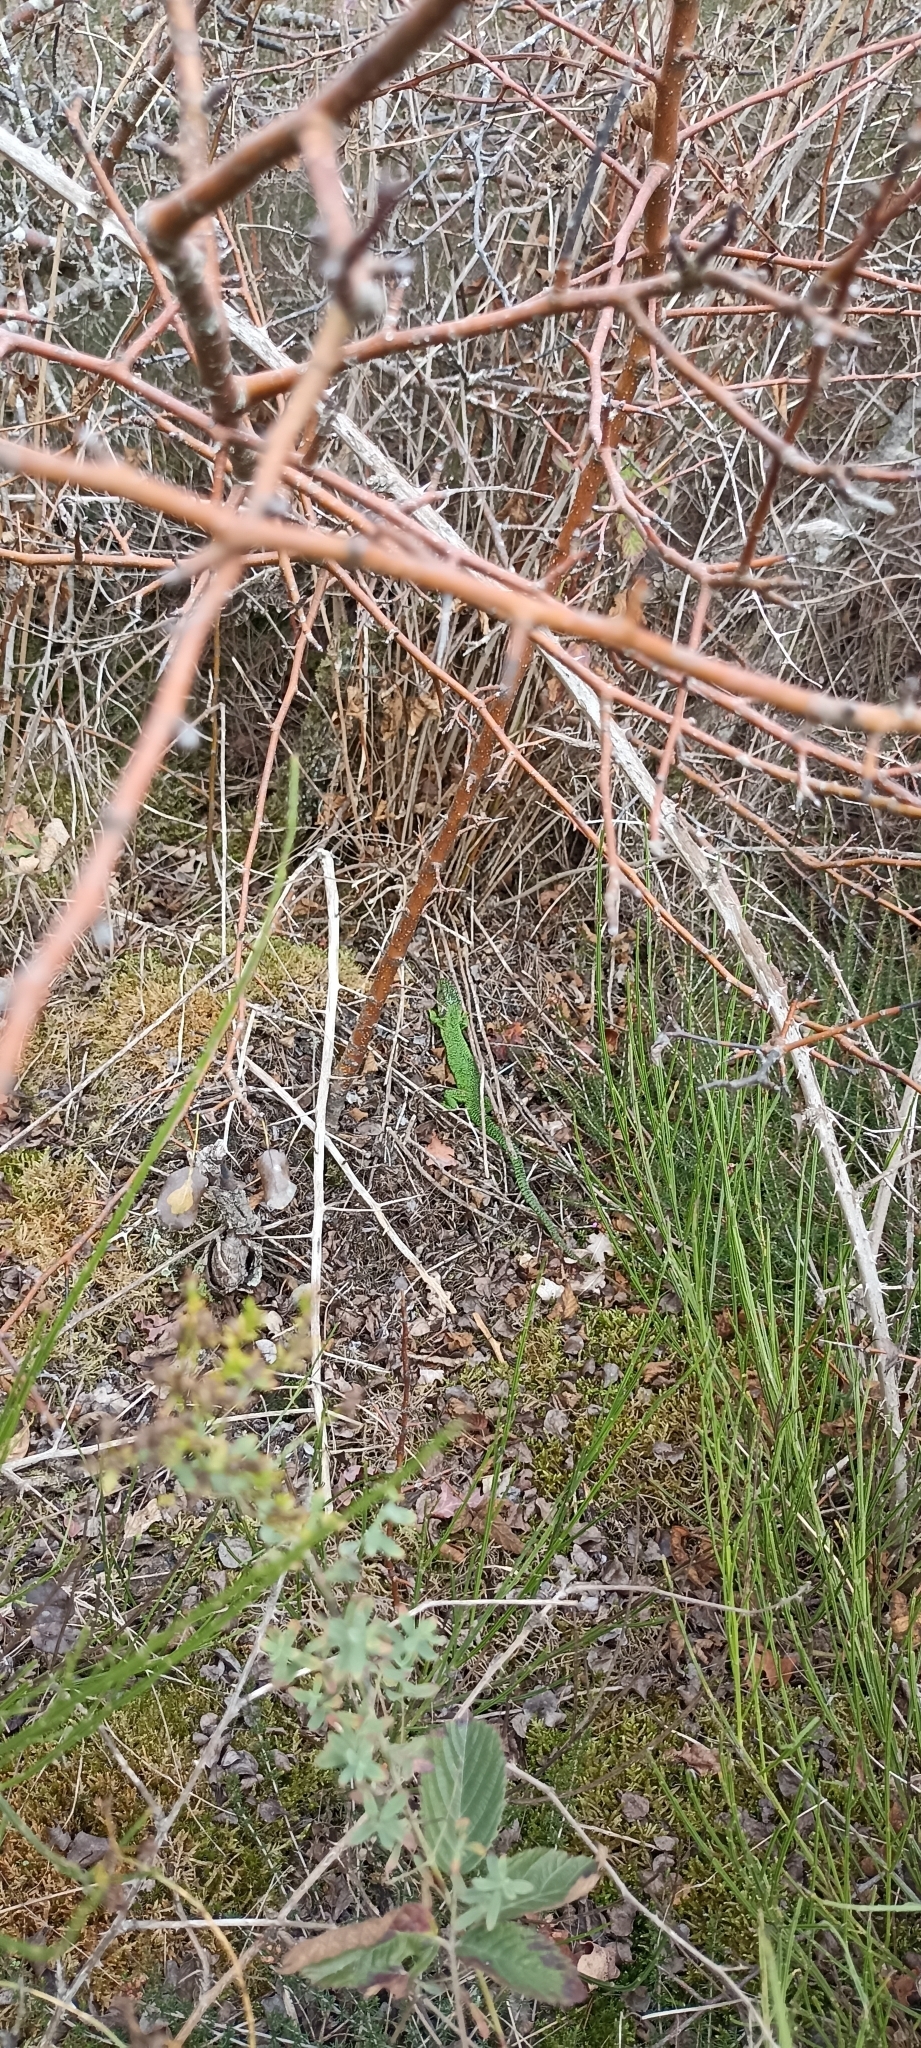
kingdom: Animalia
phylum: Chordata
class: Squamata
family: Lacertidae
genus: Lacerta
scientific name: Lacerta bilineata
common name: Western green lizard
